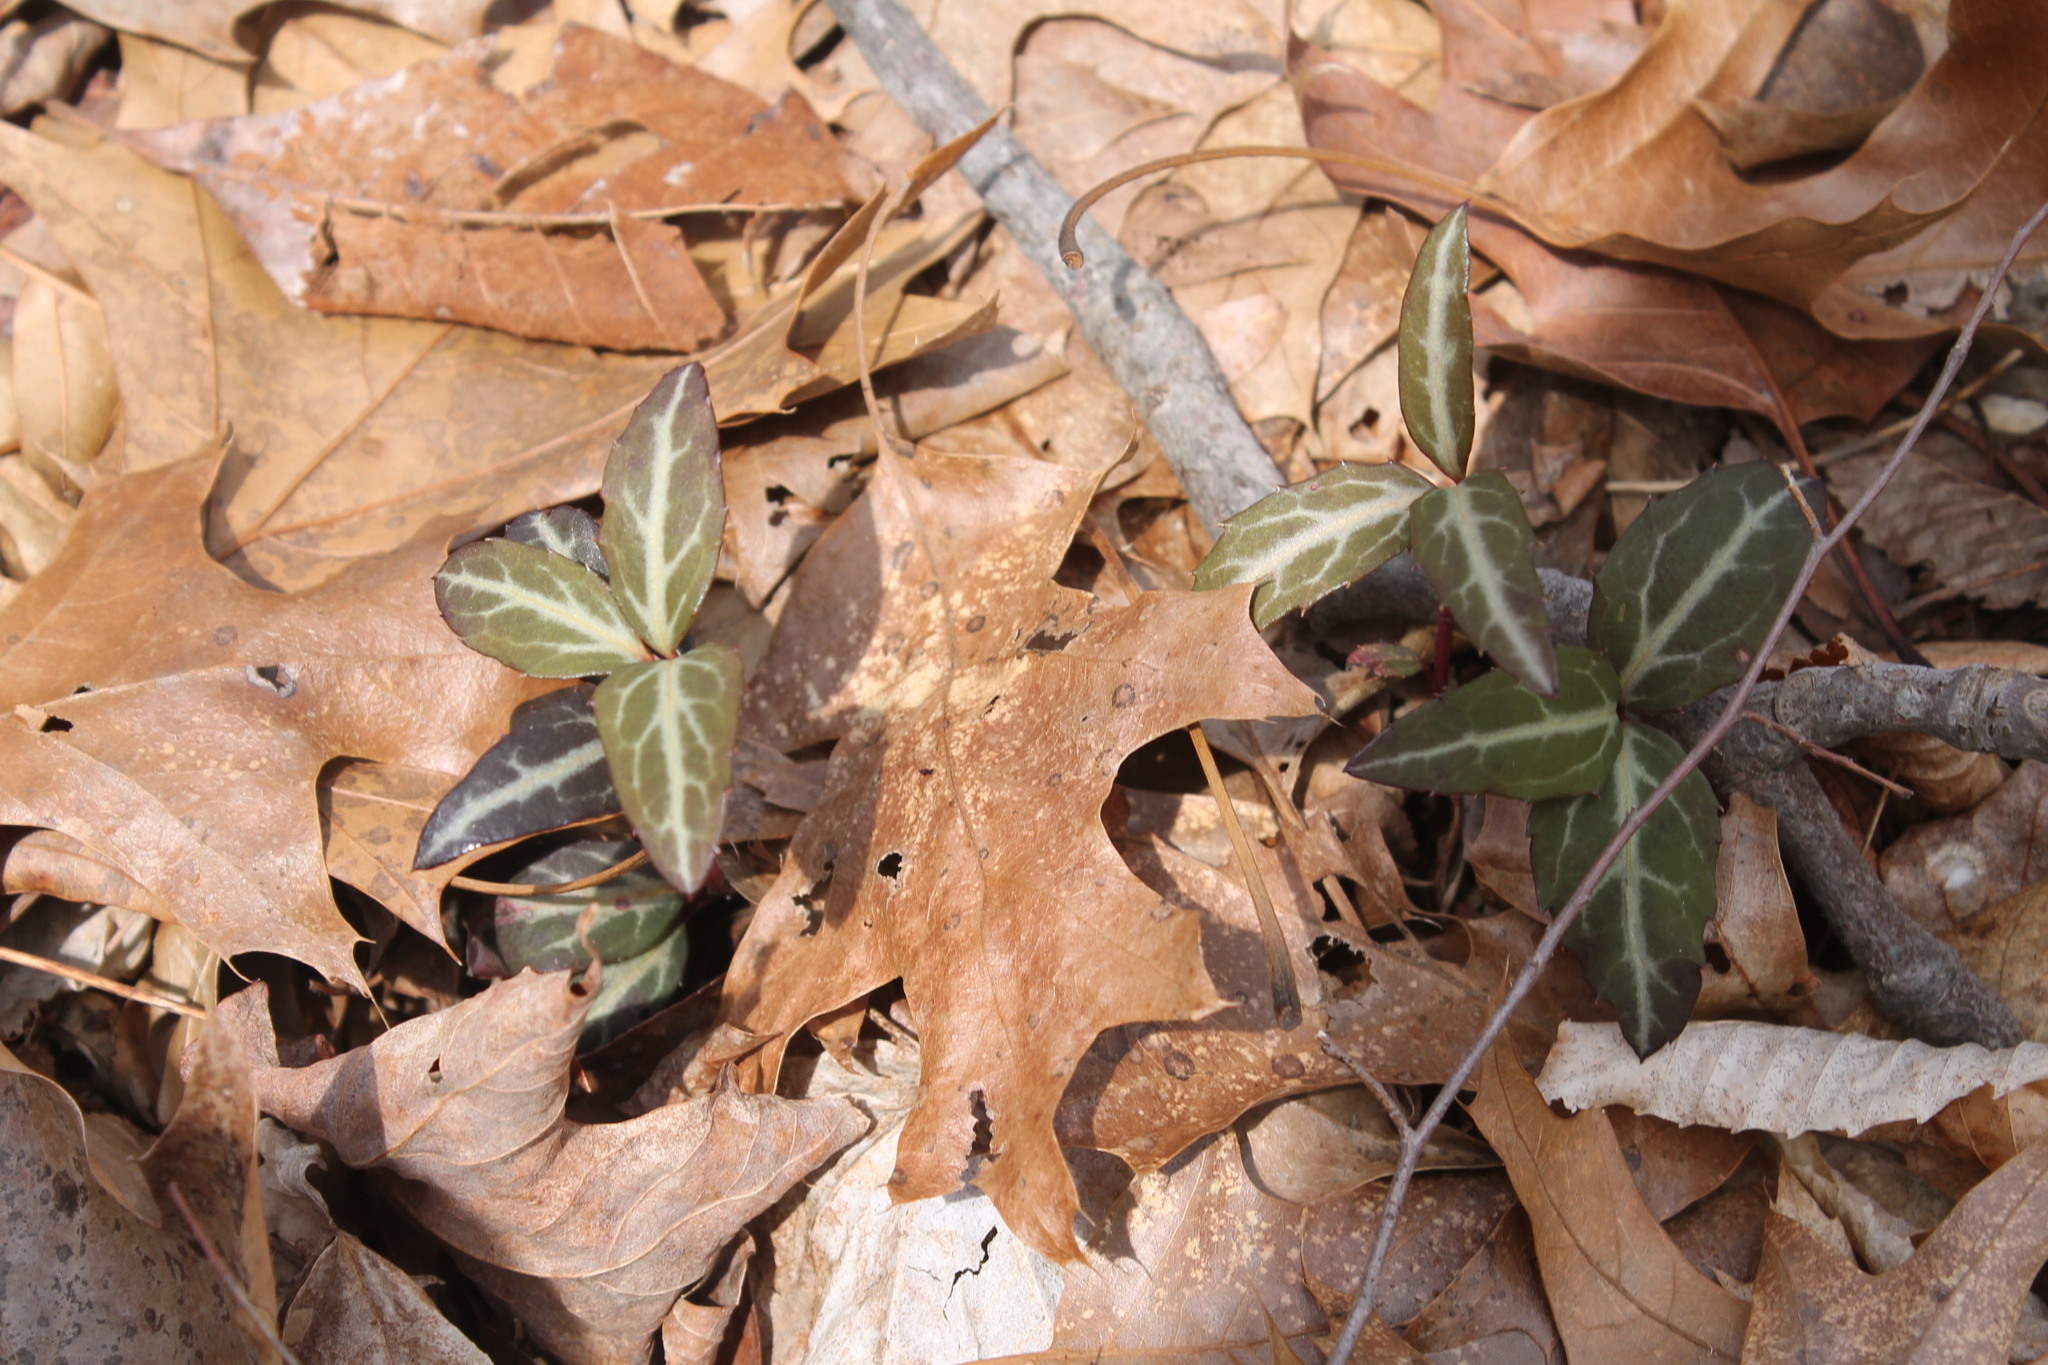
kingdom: Plantae
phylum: Tracheophyta
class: Magnoliopsida
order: Ericales
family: Ericaceae
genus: Chimaphila
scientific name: Chimaphila maculata
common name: Spotted pipsissewa
